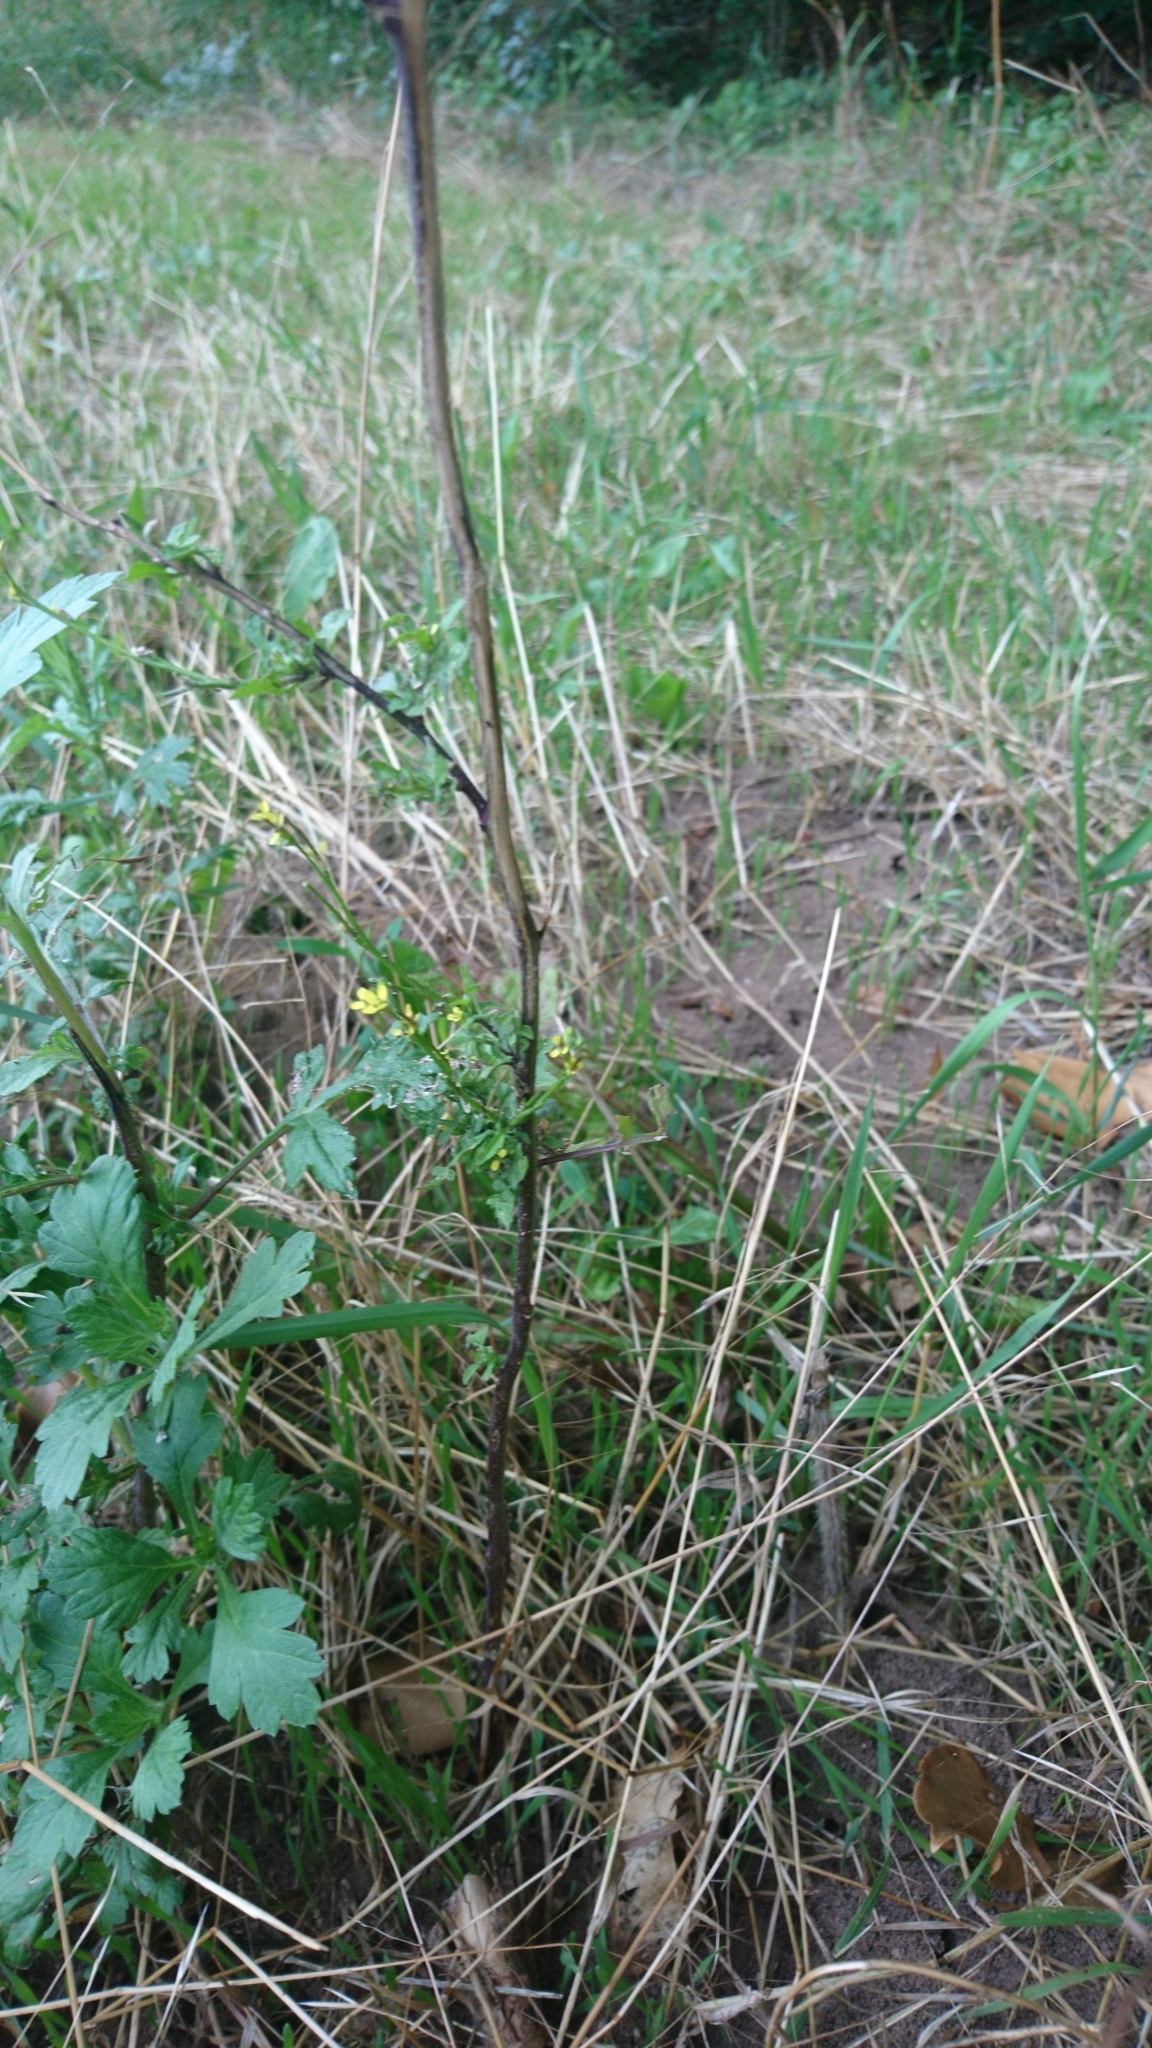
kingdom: Plantae
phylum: Tracheophyta
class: Magnoliopsida
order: Brassicales
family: Brassicaceae
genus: Sisymbrium
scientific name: Sisymbrium officinale
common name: Hedge mustard
